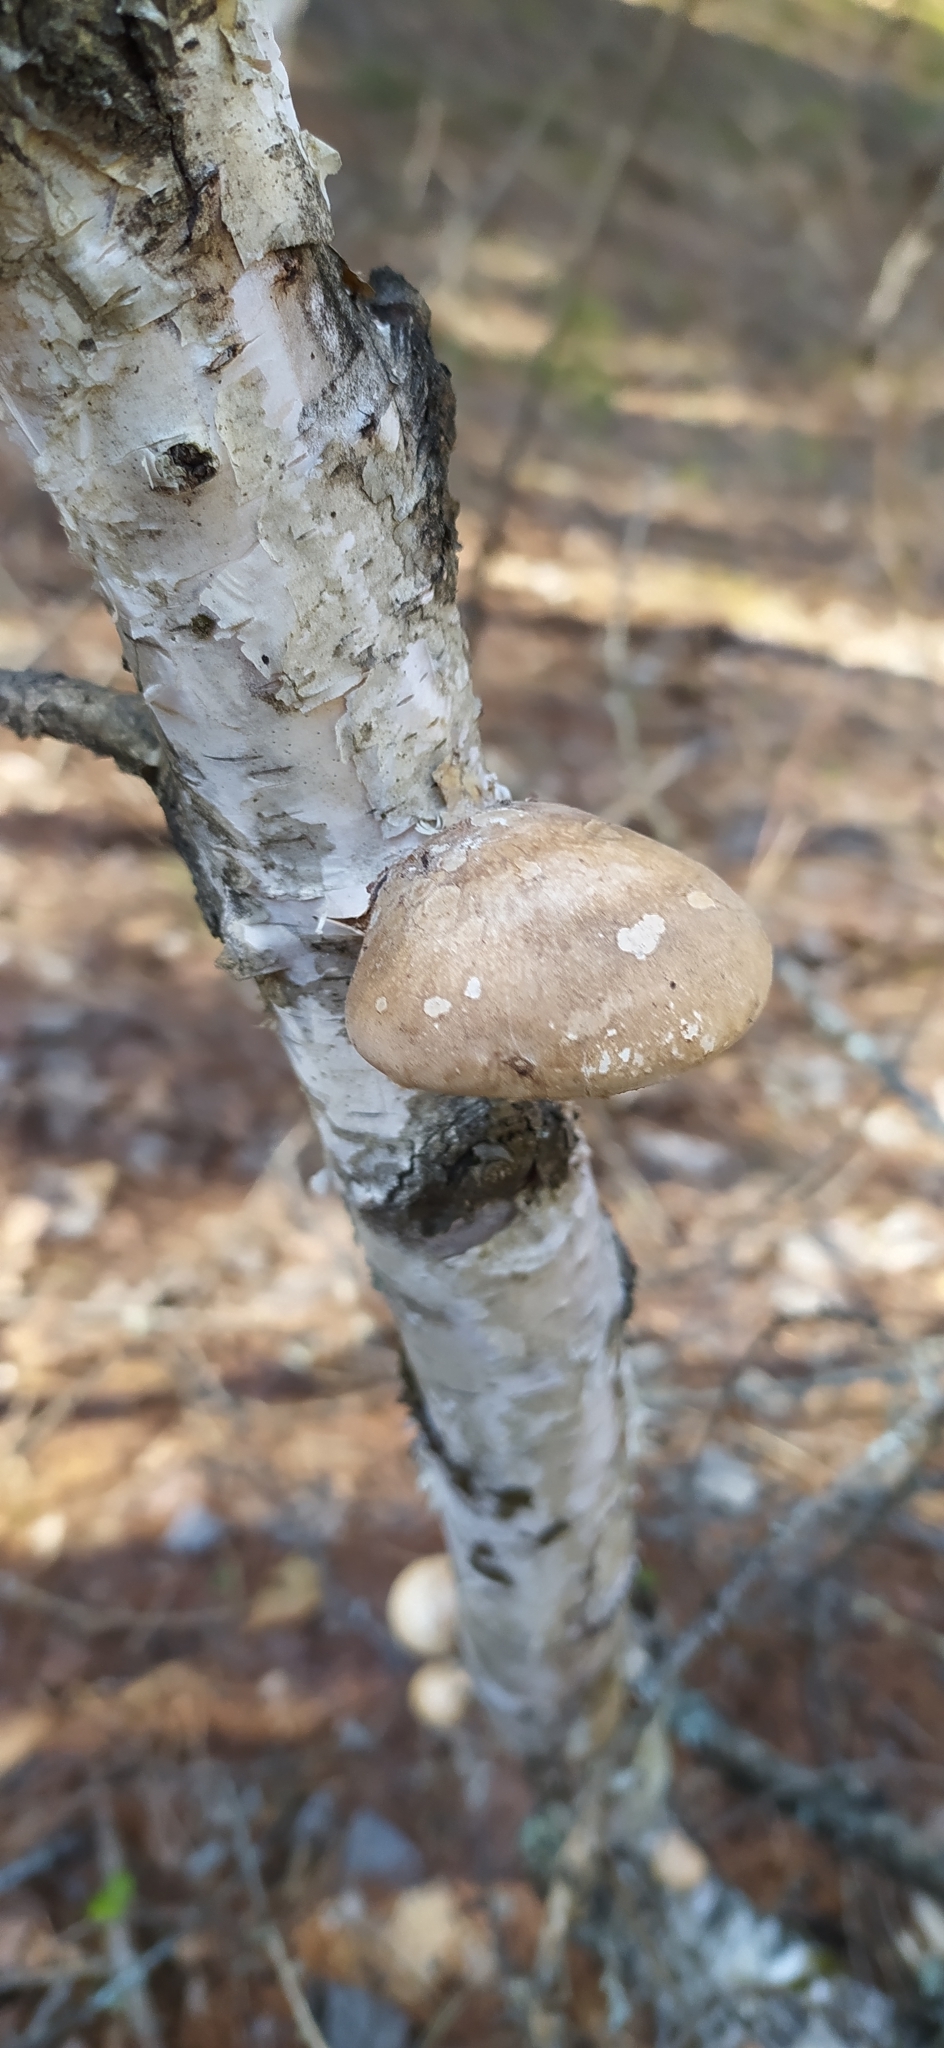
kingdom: Fungi
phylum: Basidiomycota
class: Agaricomycetes
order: Polyporales
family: Fomitopsidaceae
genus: Fomitopsis
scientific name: Fomitopsis betulina
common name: Birch polypore
